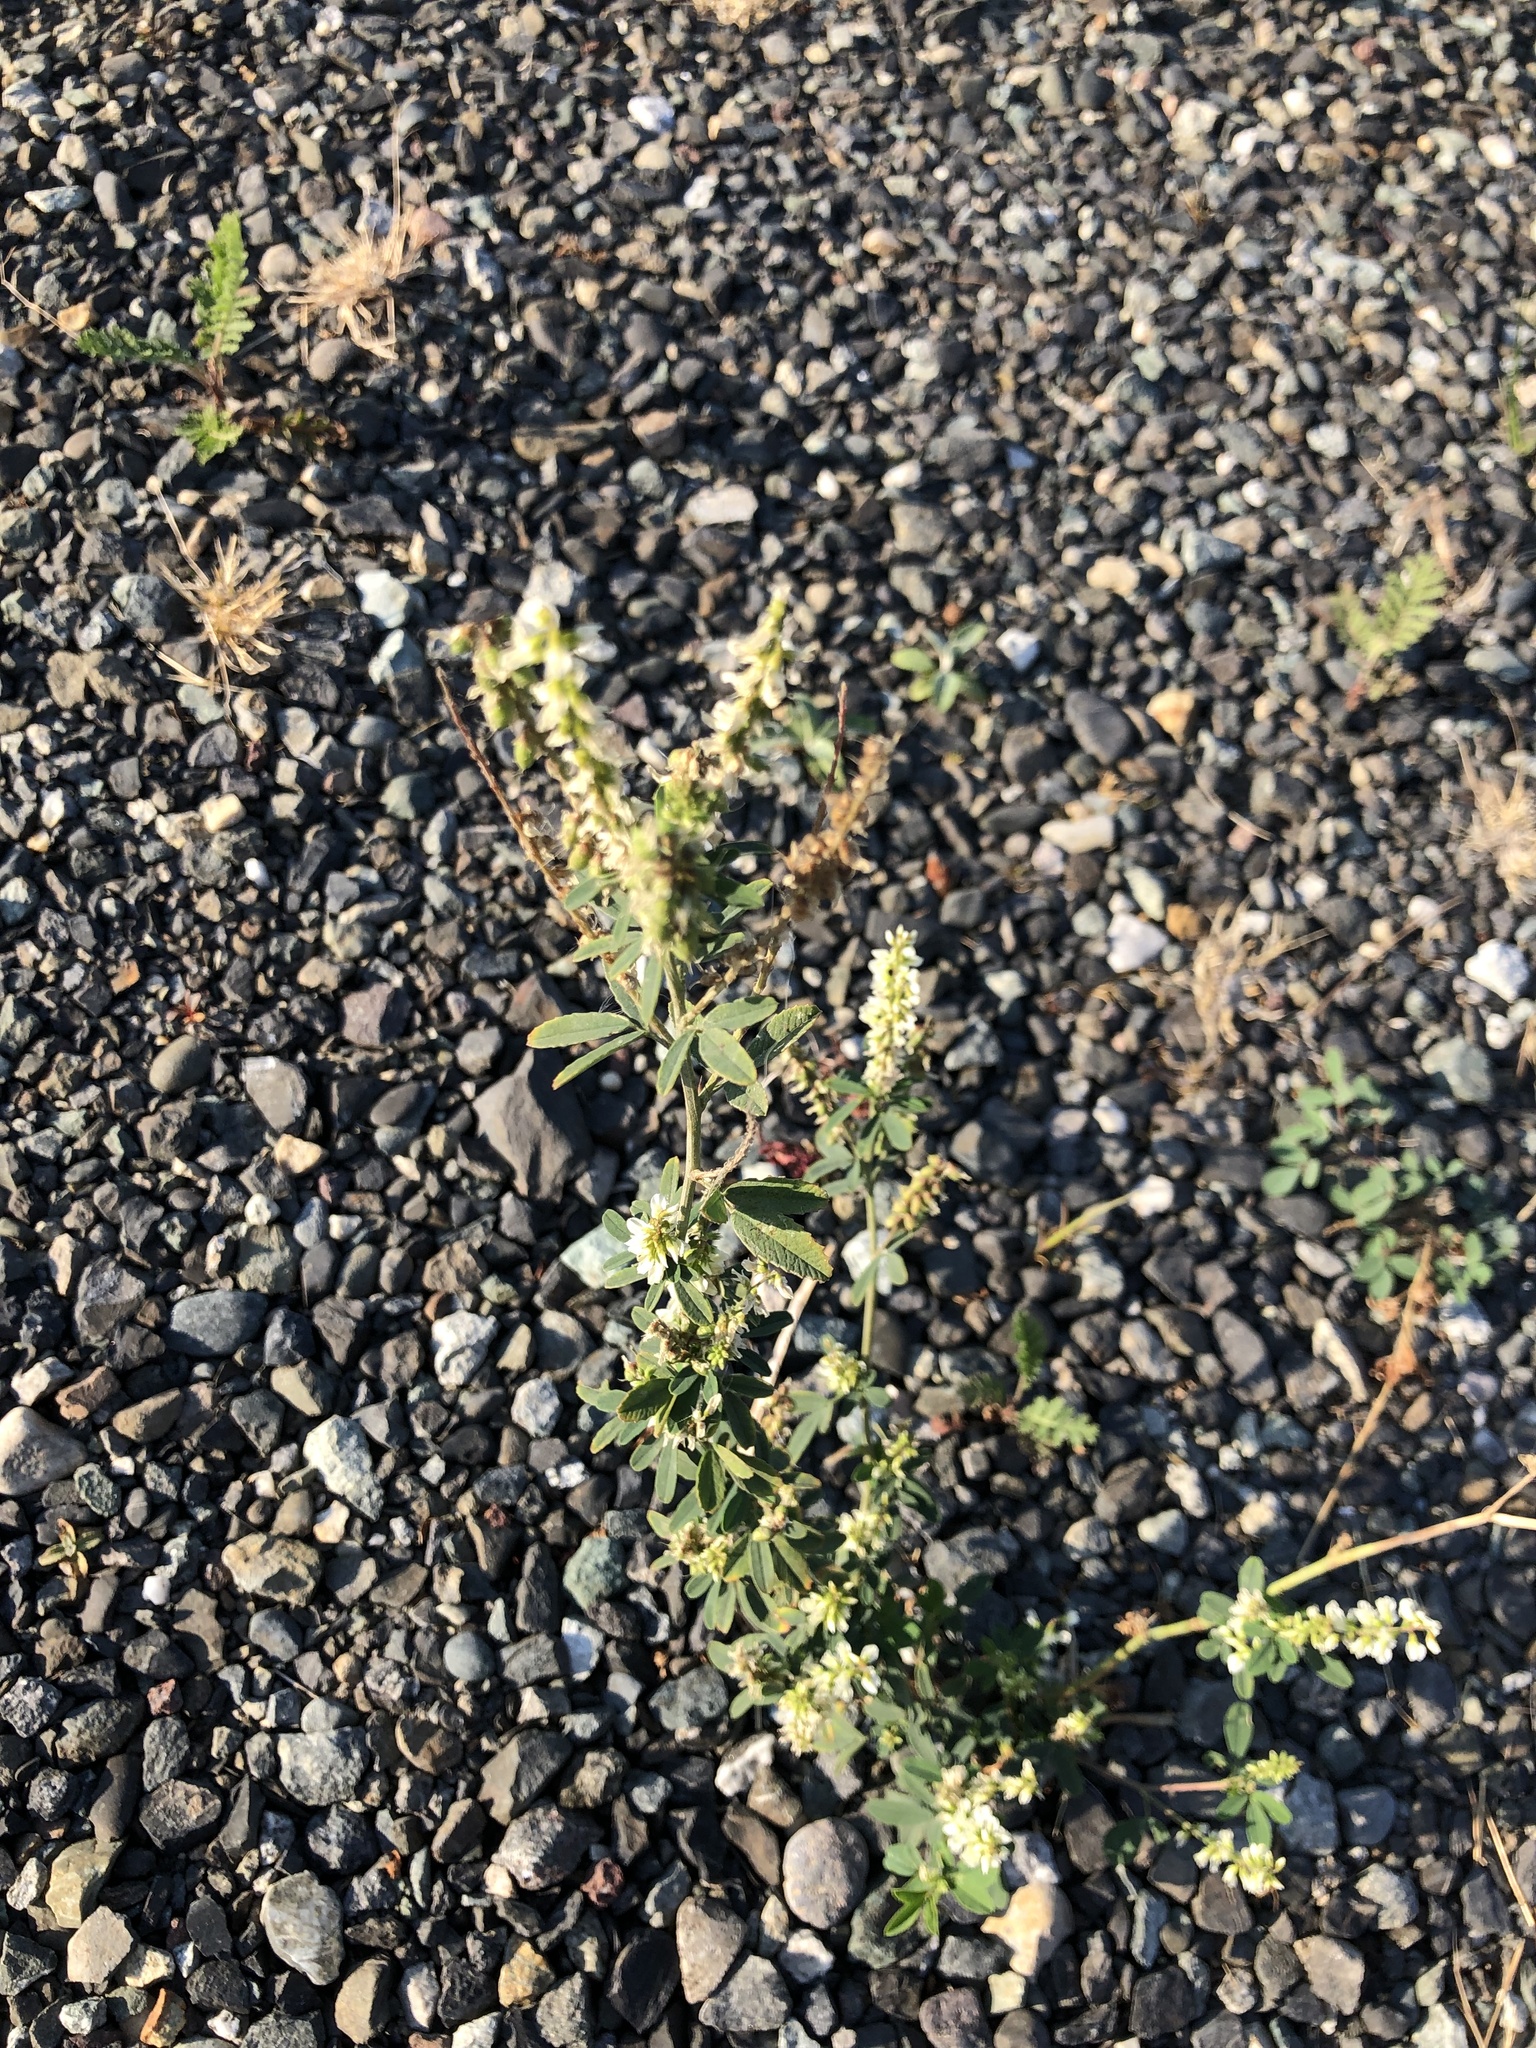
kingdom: Plantae
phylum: Tracheophyta
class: Magnoliopsida
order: Fabales
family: Fabaceae
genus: Melilotus
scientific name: Melilotus albus
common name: White melilot
